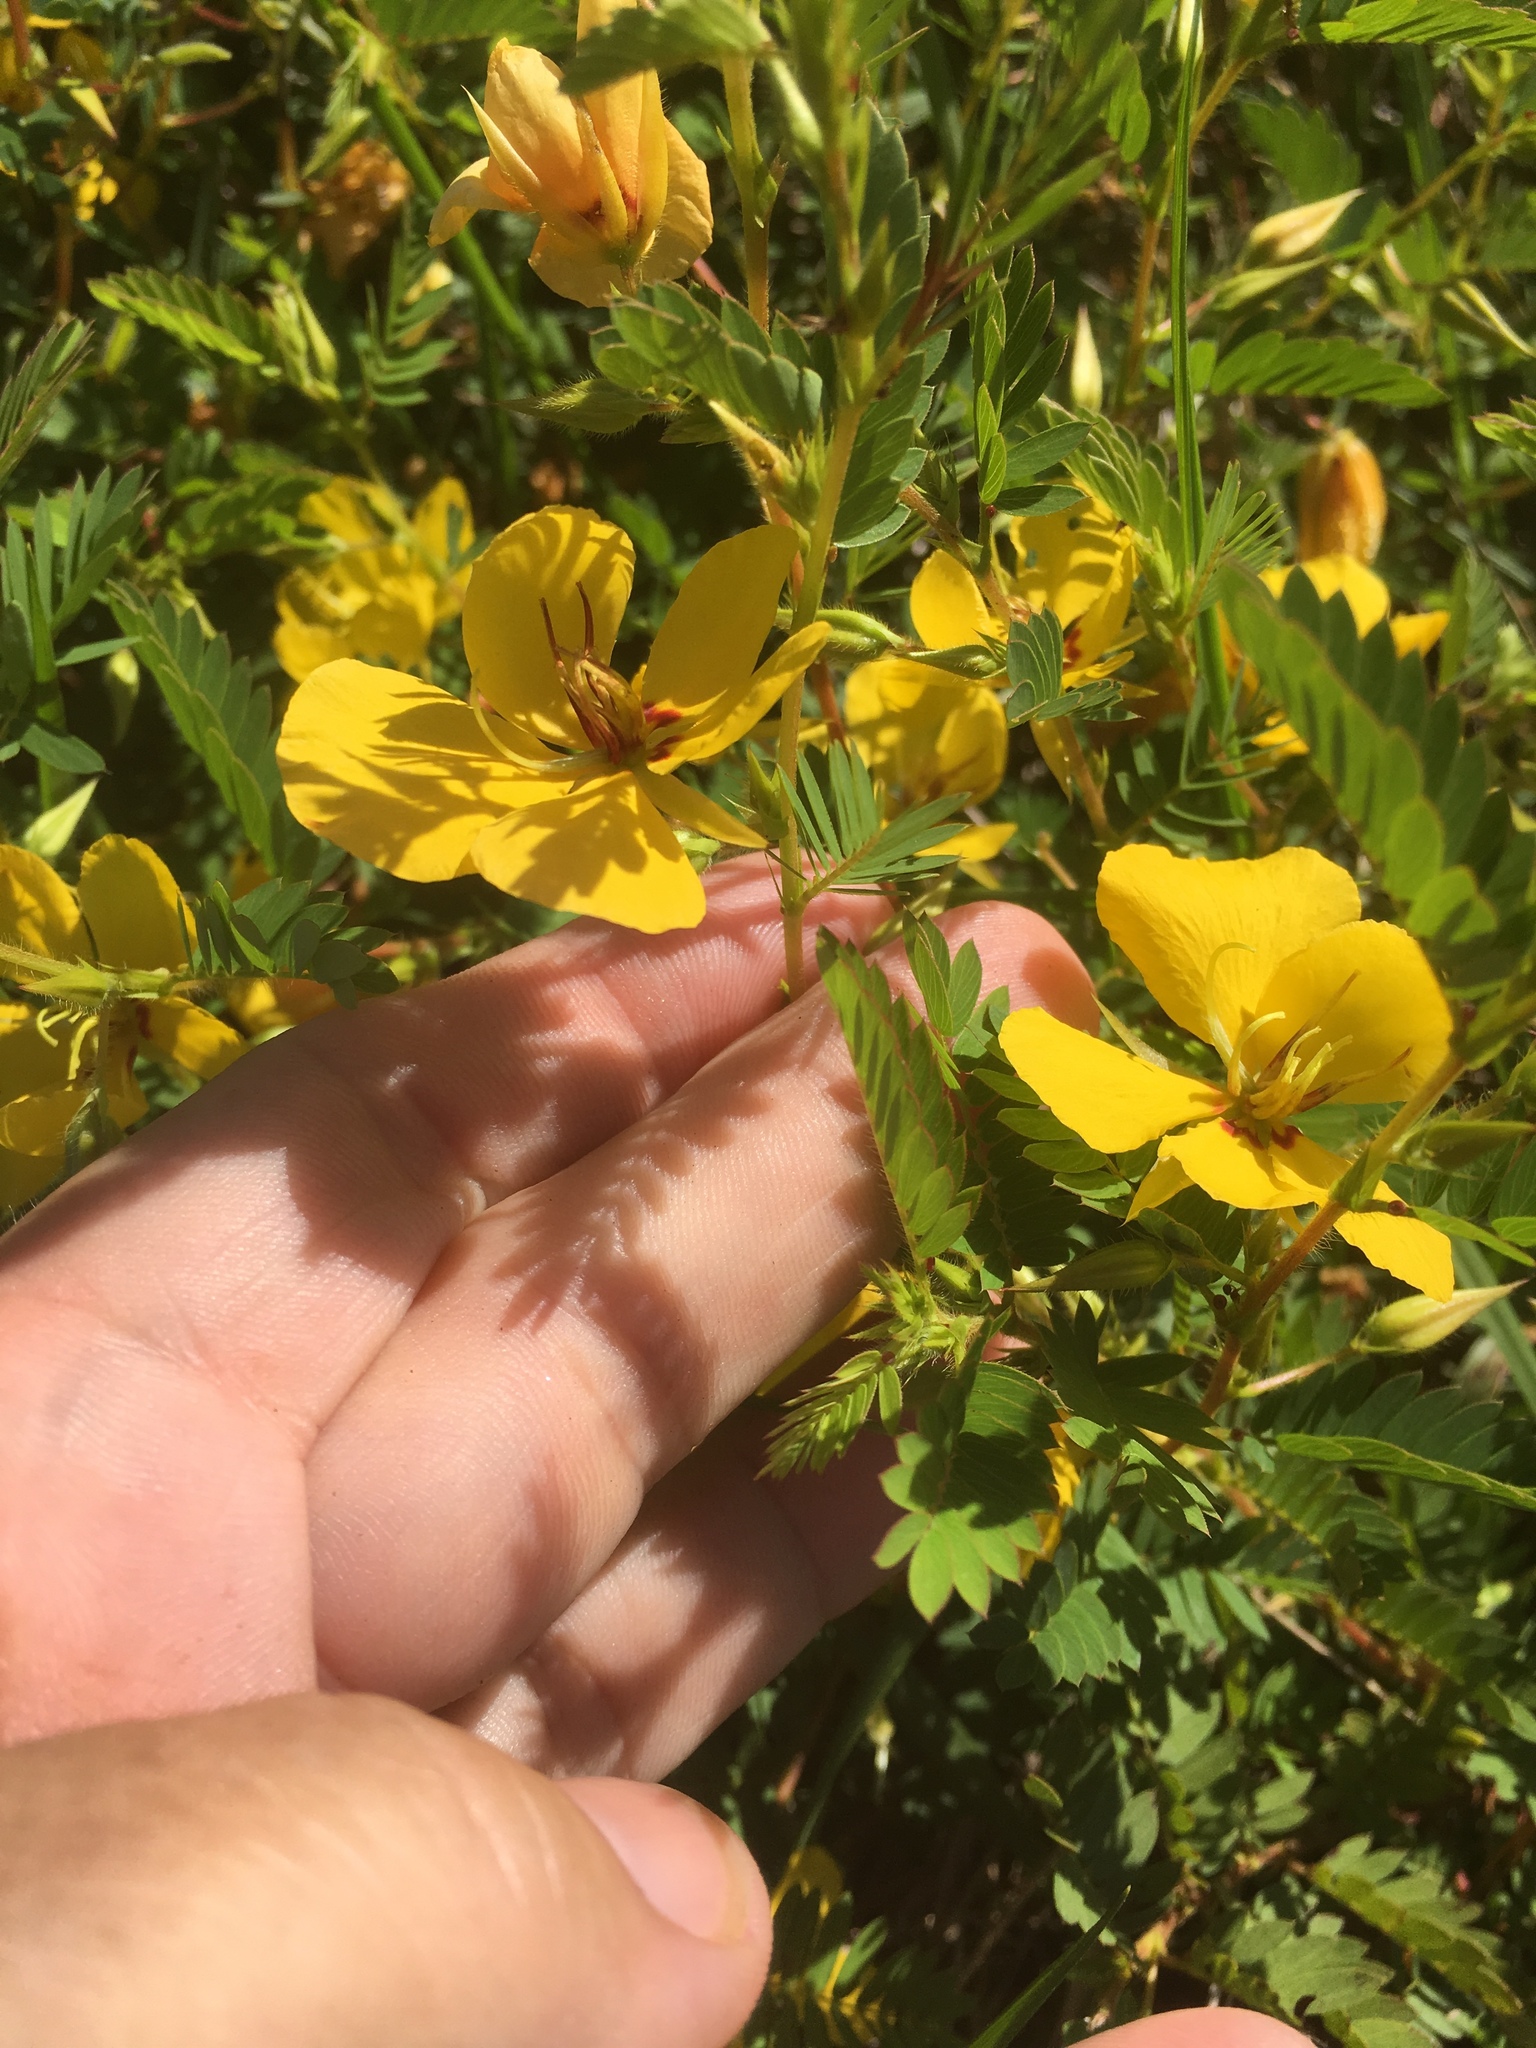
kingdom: Plantae
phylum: Tracheophyta
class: Magnoliopsida
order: Fabales
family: Fabaceae
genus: Chamaecrista
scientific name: Chamaecrista fasciculata
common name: Golden cassia
